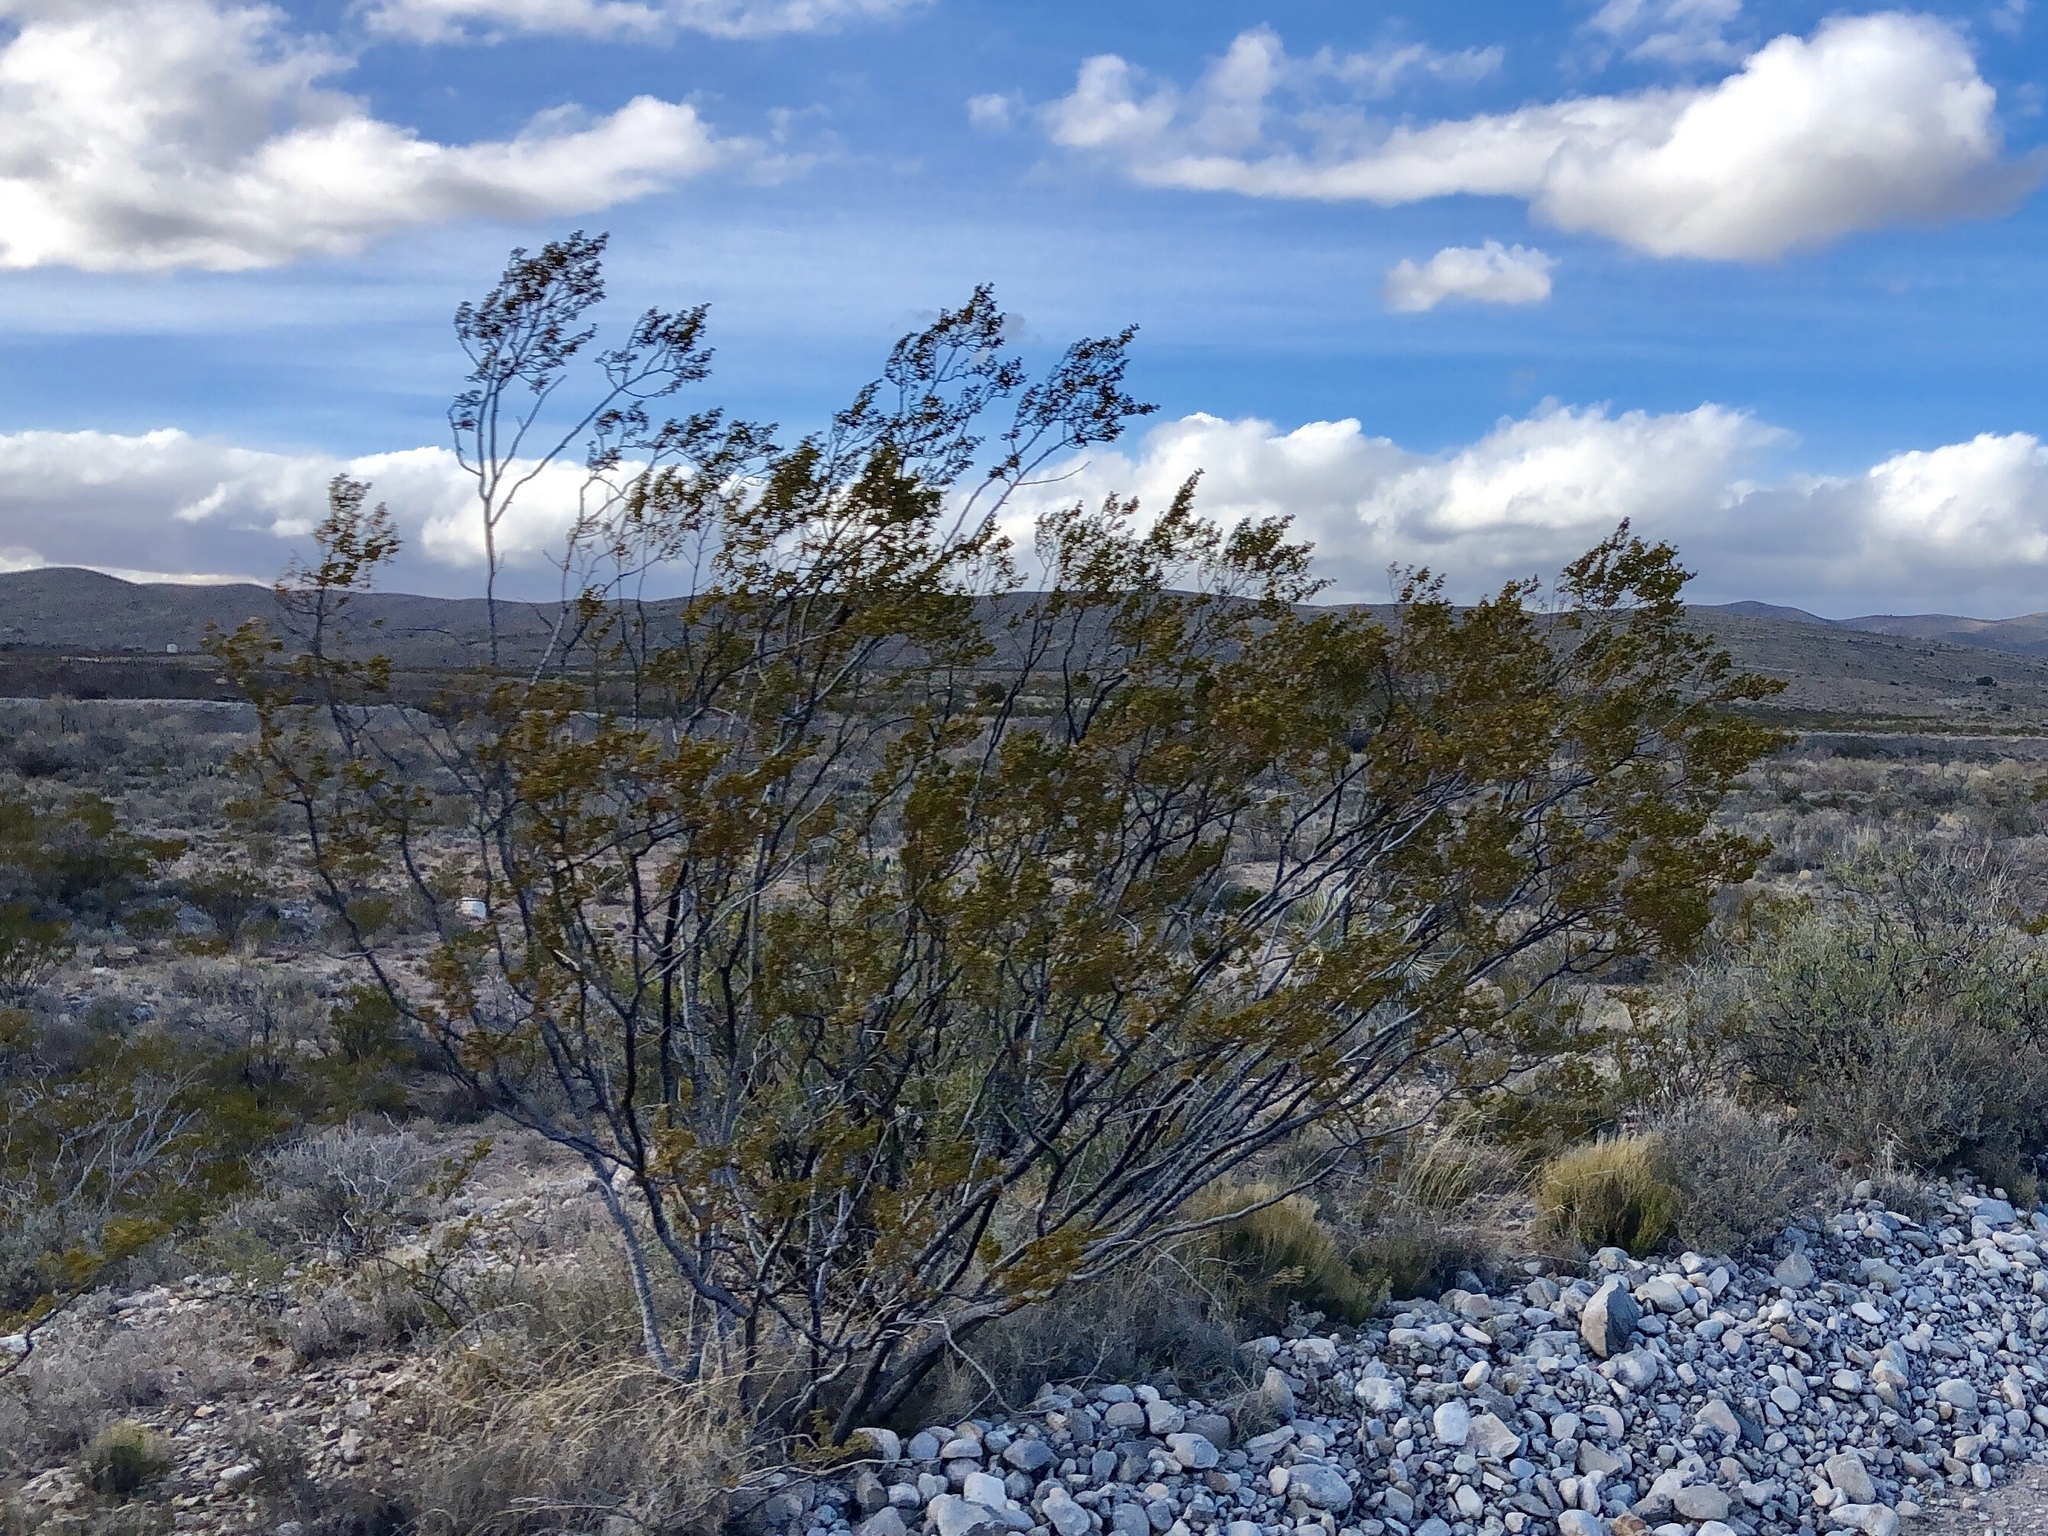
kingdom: Plantae
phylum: Tracheophyta
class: Magnoliopsida
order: Zygophyllales
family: Zygophyllaceae
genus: Larrea
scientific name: Larrea tridentata
